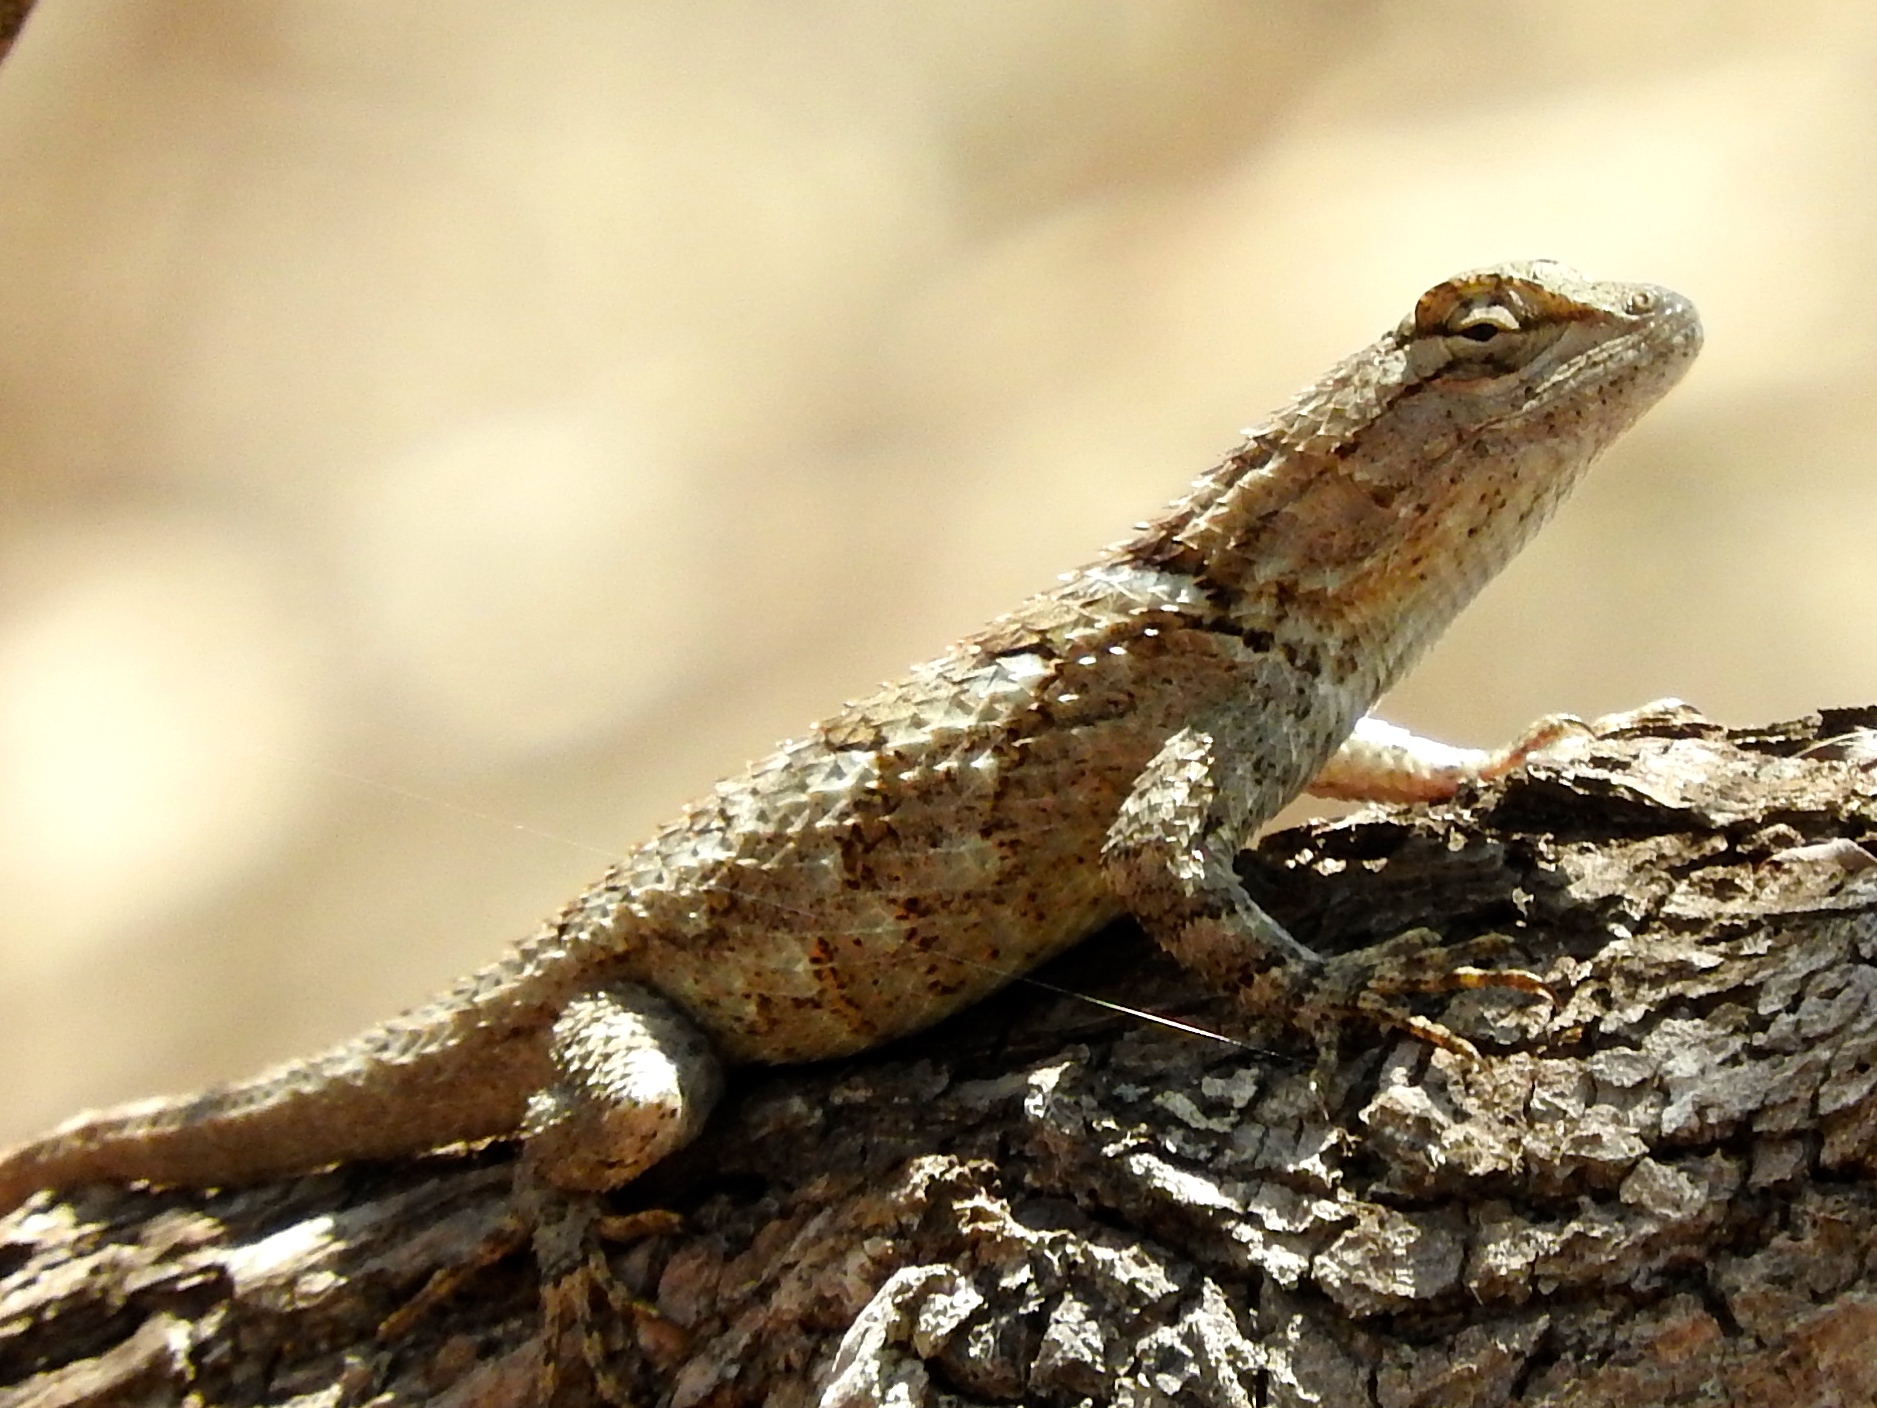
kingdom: Animalia
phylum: Chordata
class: Squamata
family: Phrynosomatidae
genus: Sceloporus
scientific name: Sceloporus clarkii
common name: Clark's spiny lizard
